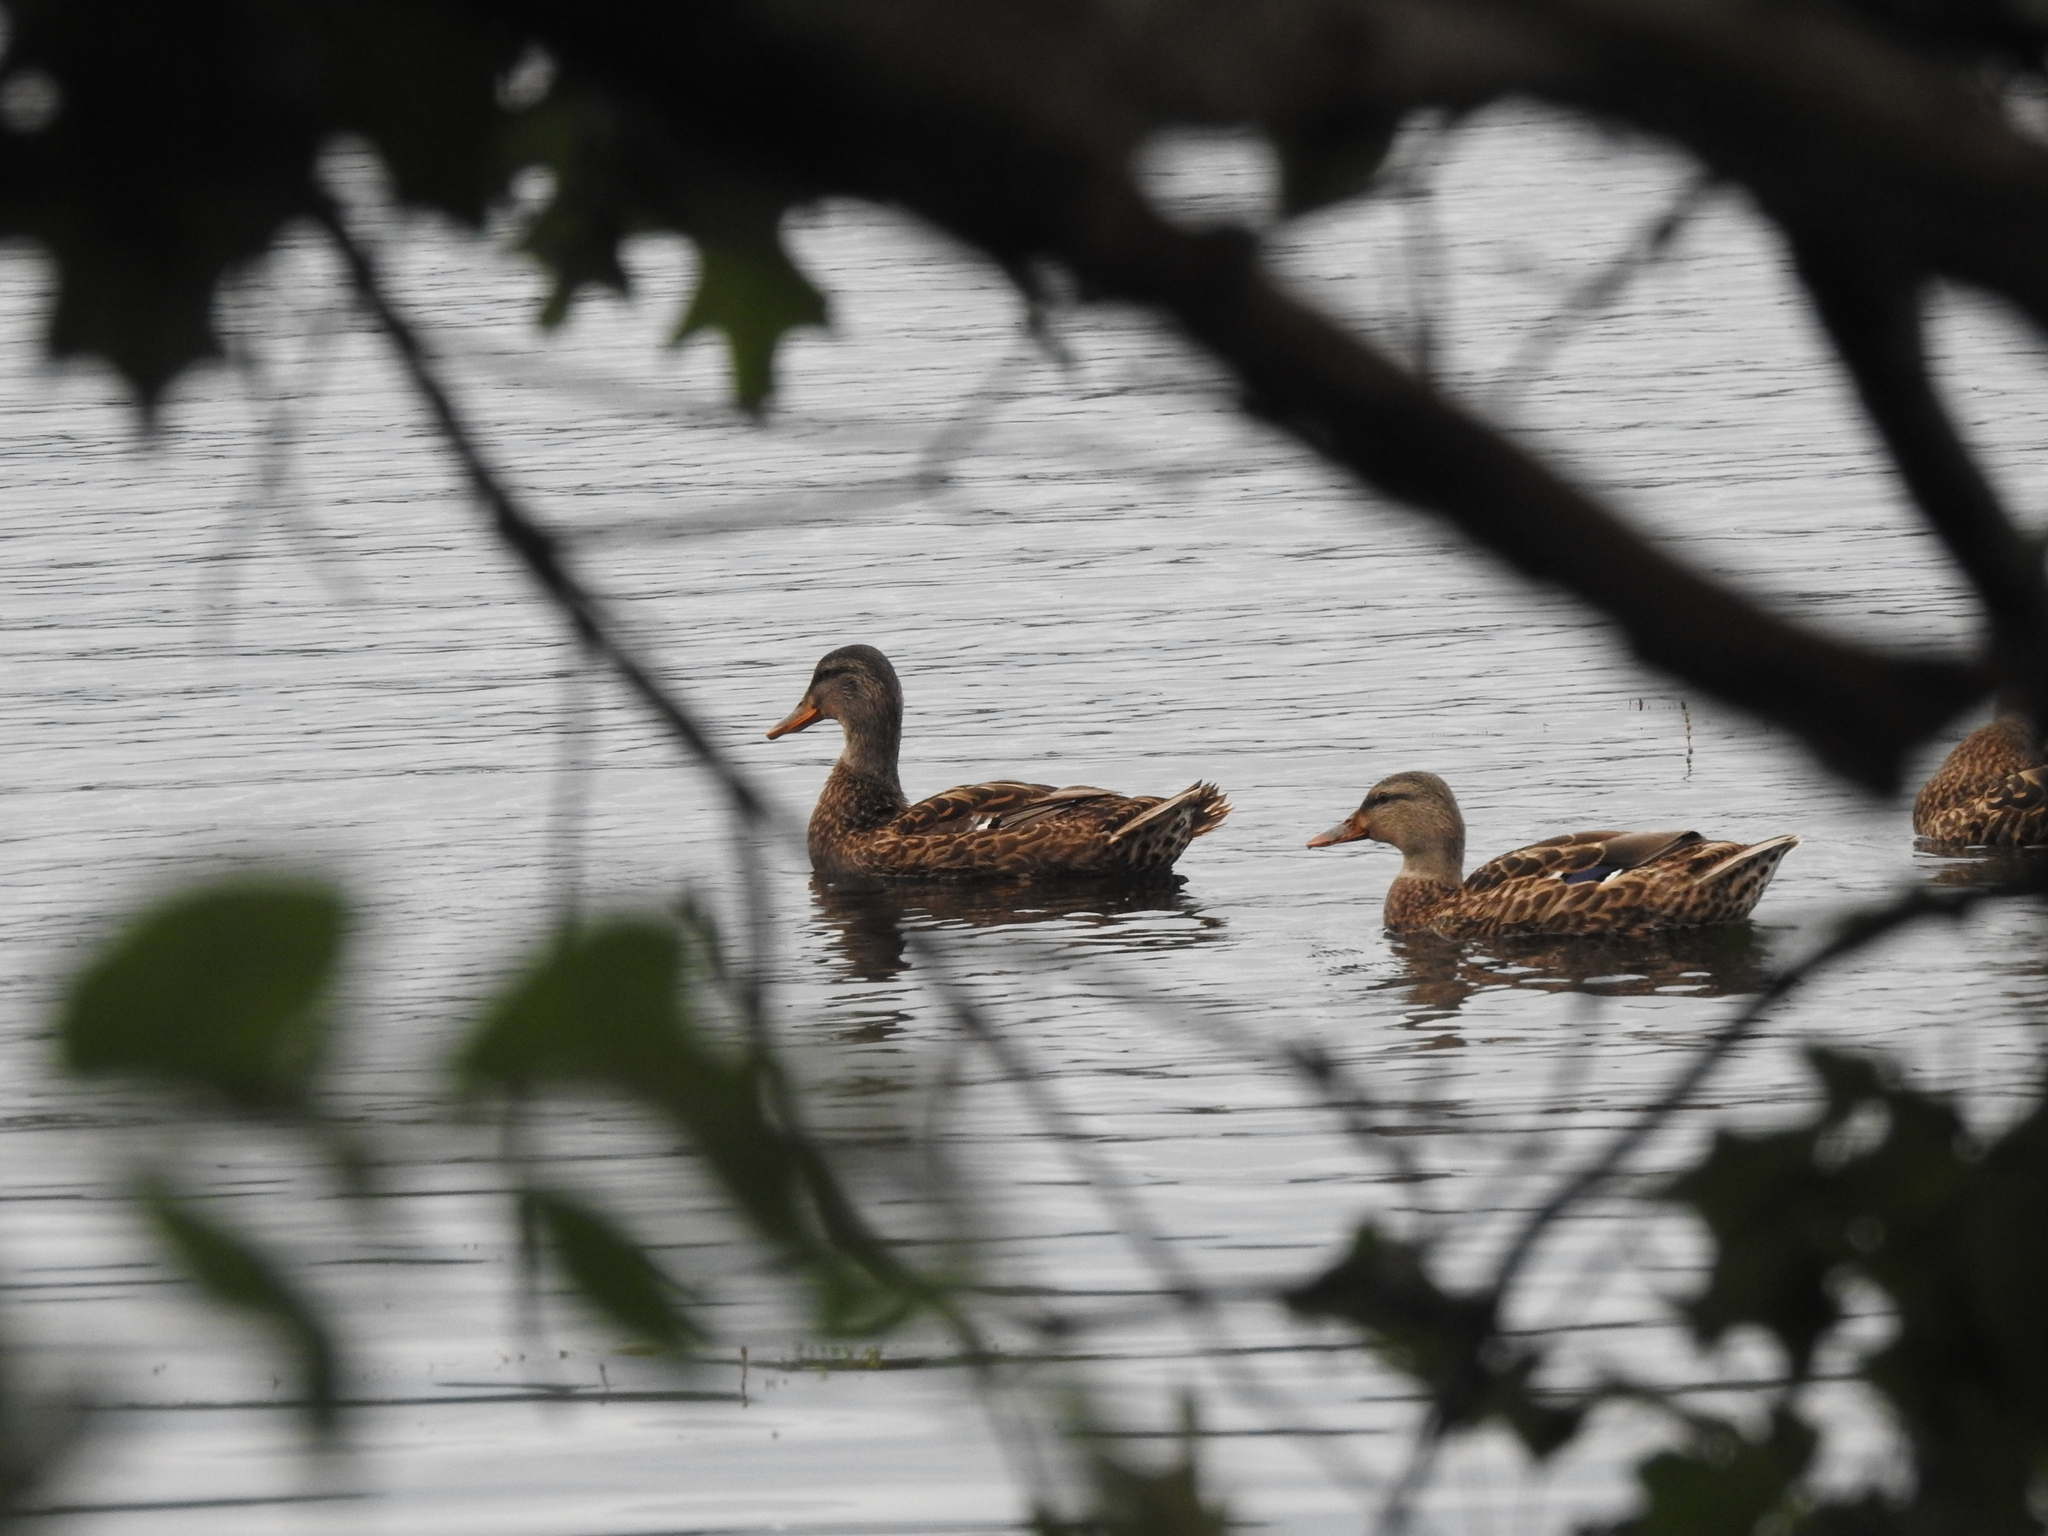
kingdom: Animalia
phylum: Chordata
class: Aves
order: Anseriformes
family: Anatidae
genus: Anas
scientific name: Anas platyrhynchos
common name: Mallard
